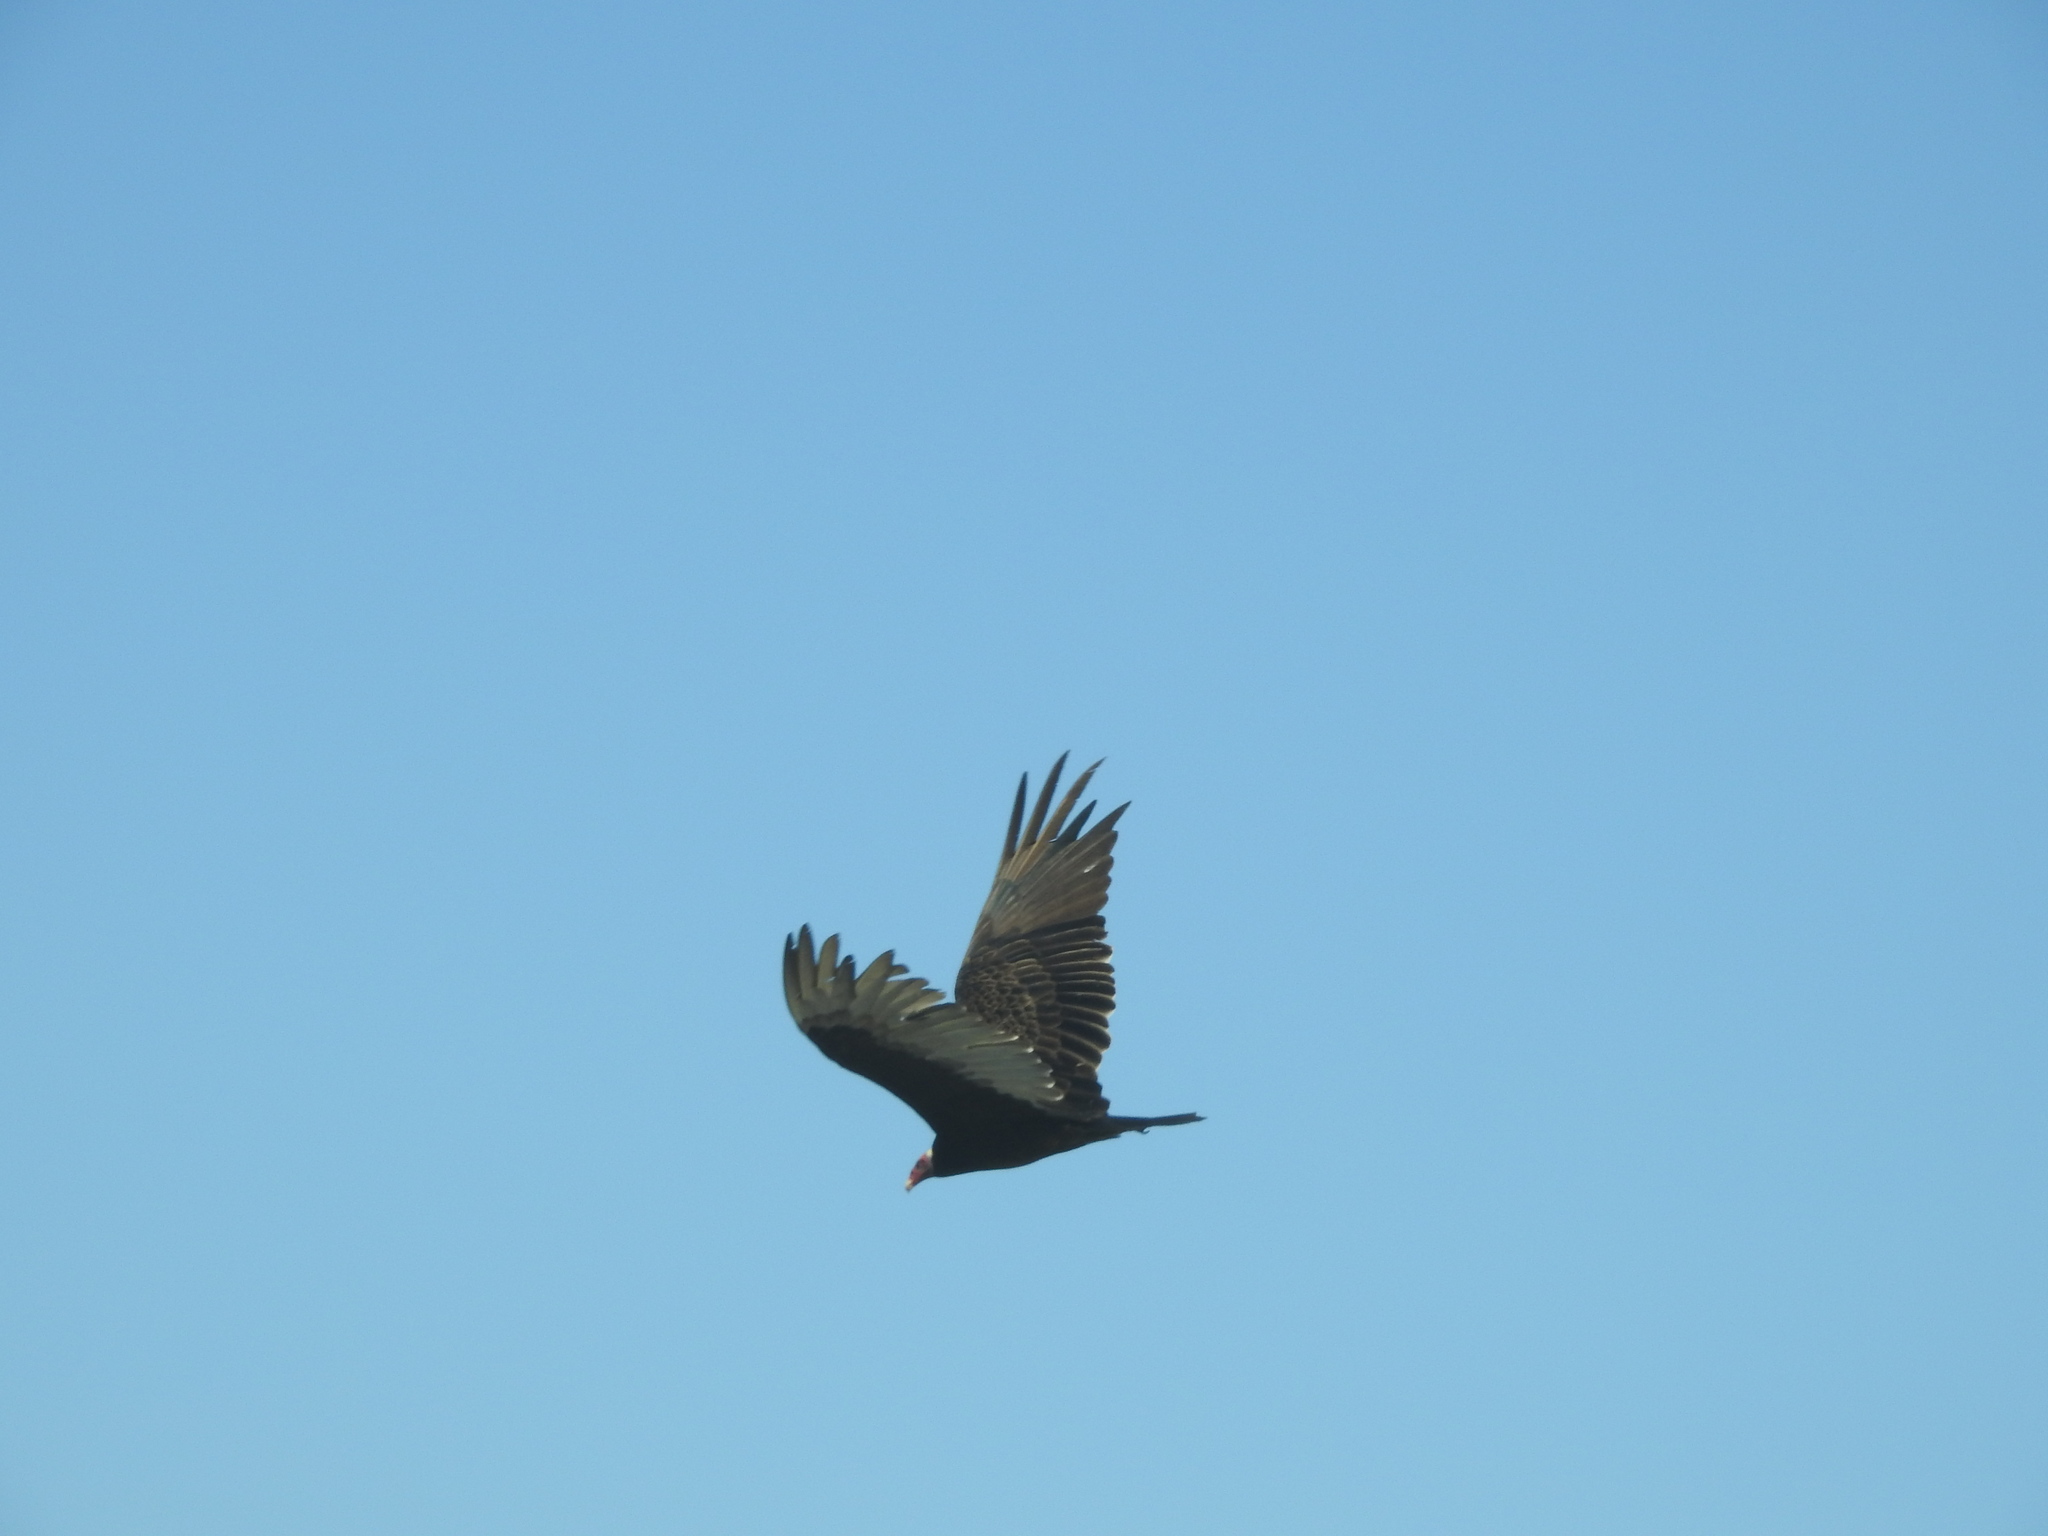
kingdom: Animalia
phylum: Chordata
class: Aves
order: Accipitriformes
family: Cathartidae
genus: Cathartes
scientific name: Cathartes aura
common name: Turkey vulture
